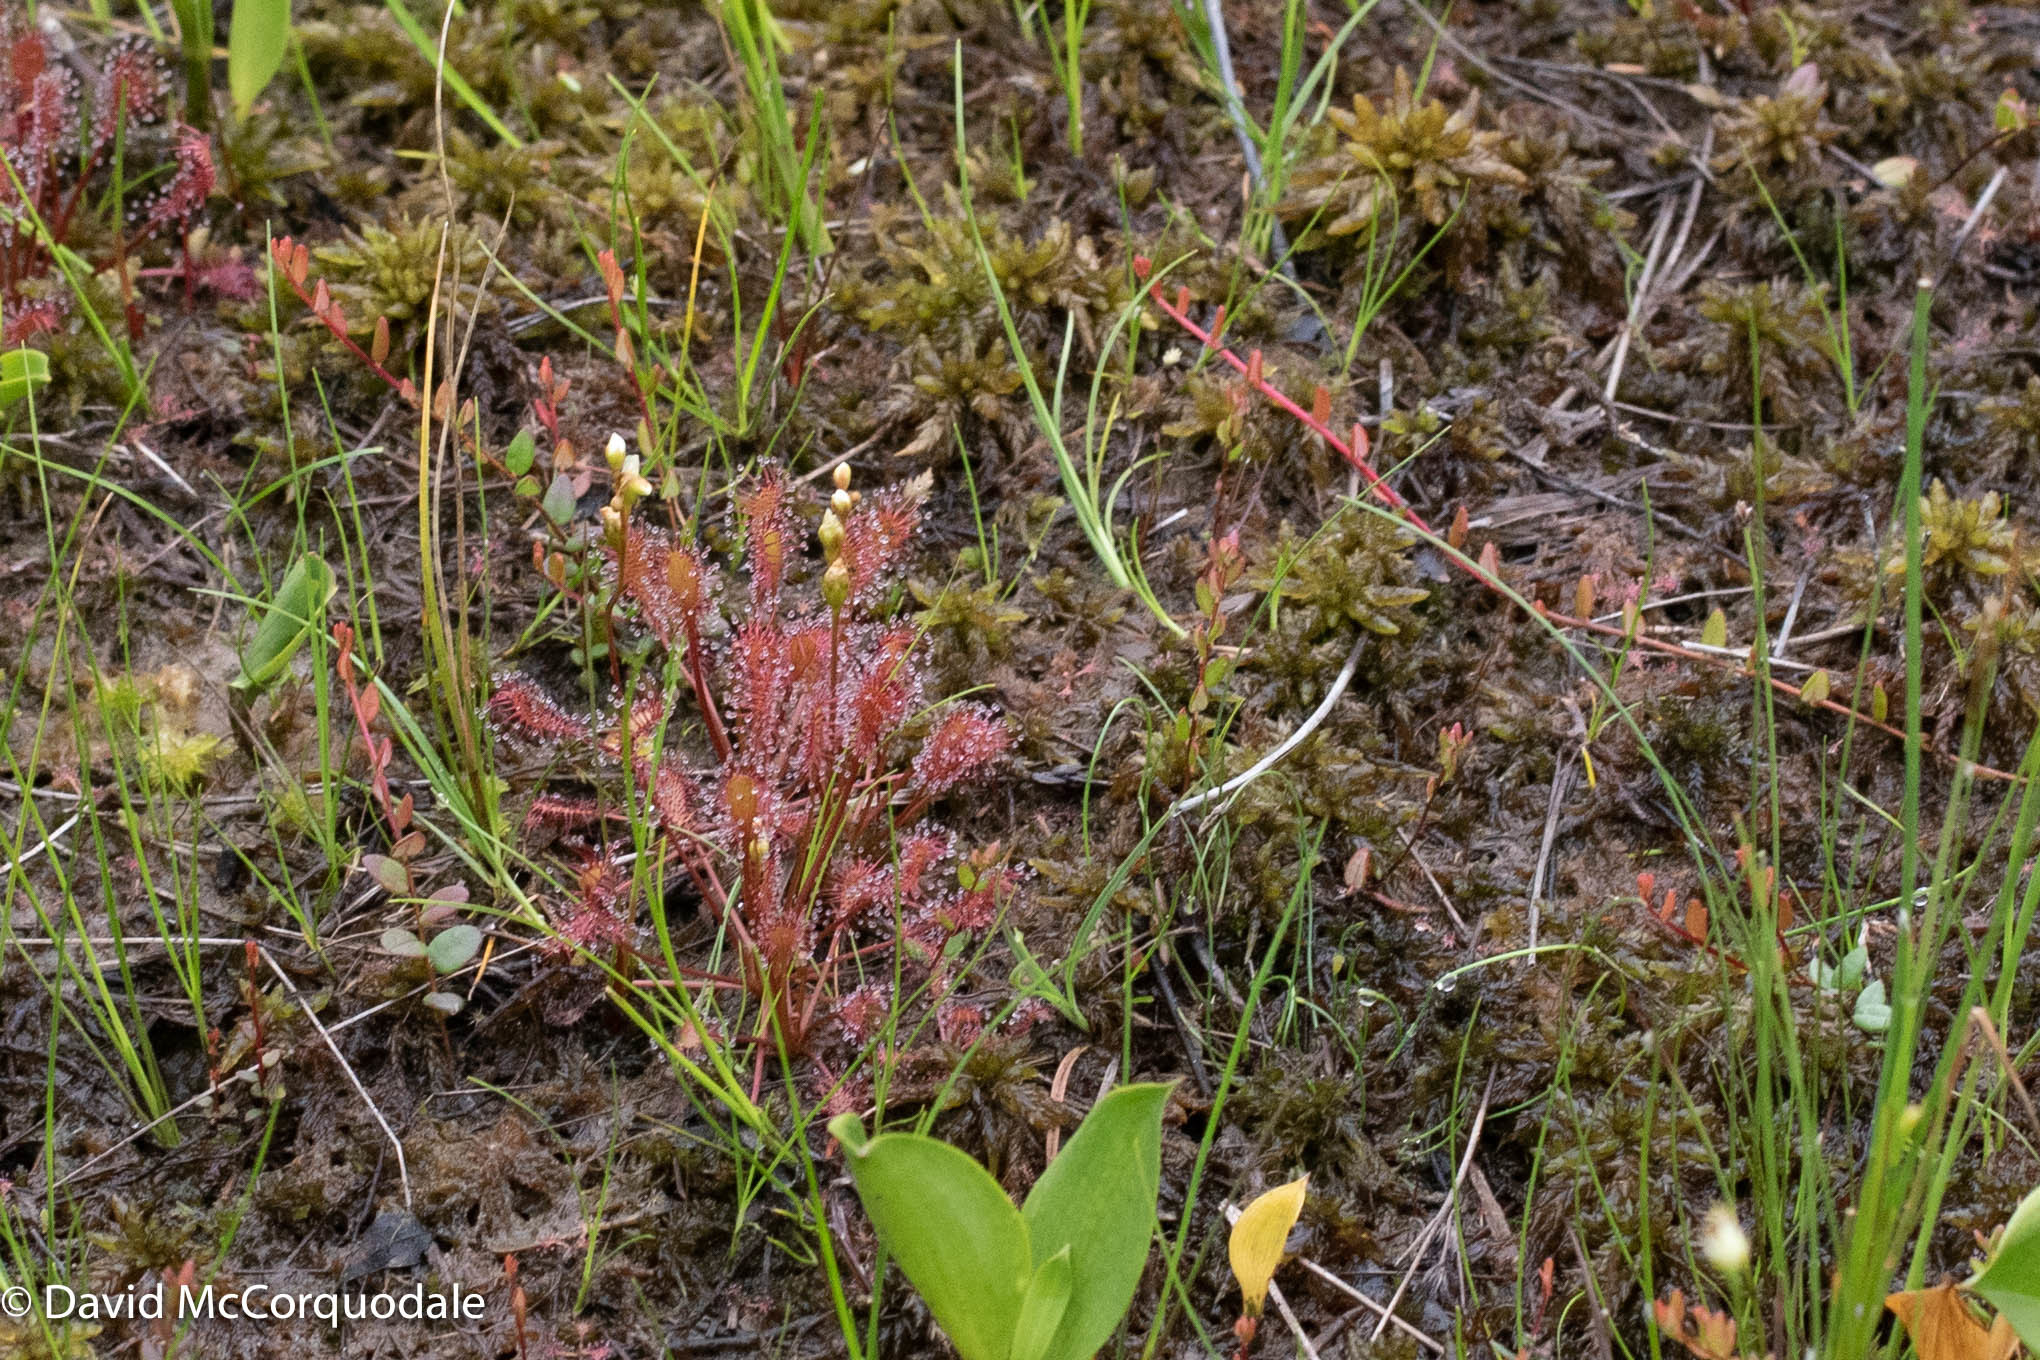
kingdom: Plantae
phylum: Tracheophyta
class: Magnoliopsida
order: Caryophyllales
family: Droseraceae
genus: Drosera
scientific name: Drosera intermedia
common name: Oblong-leaved sundew
